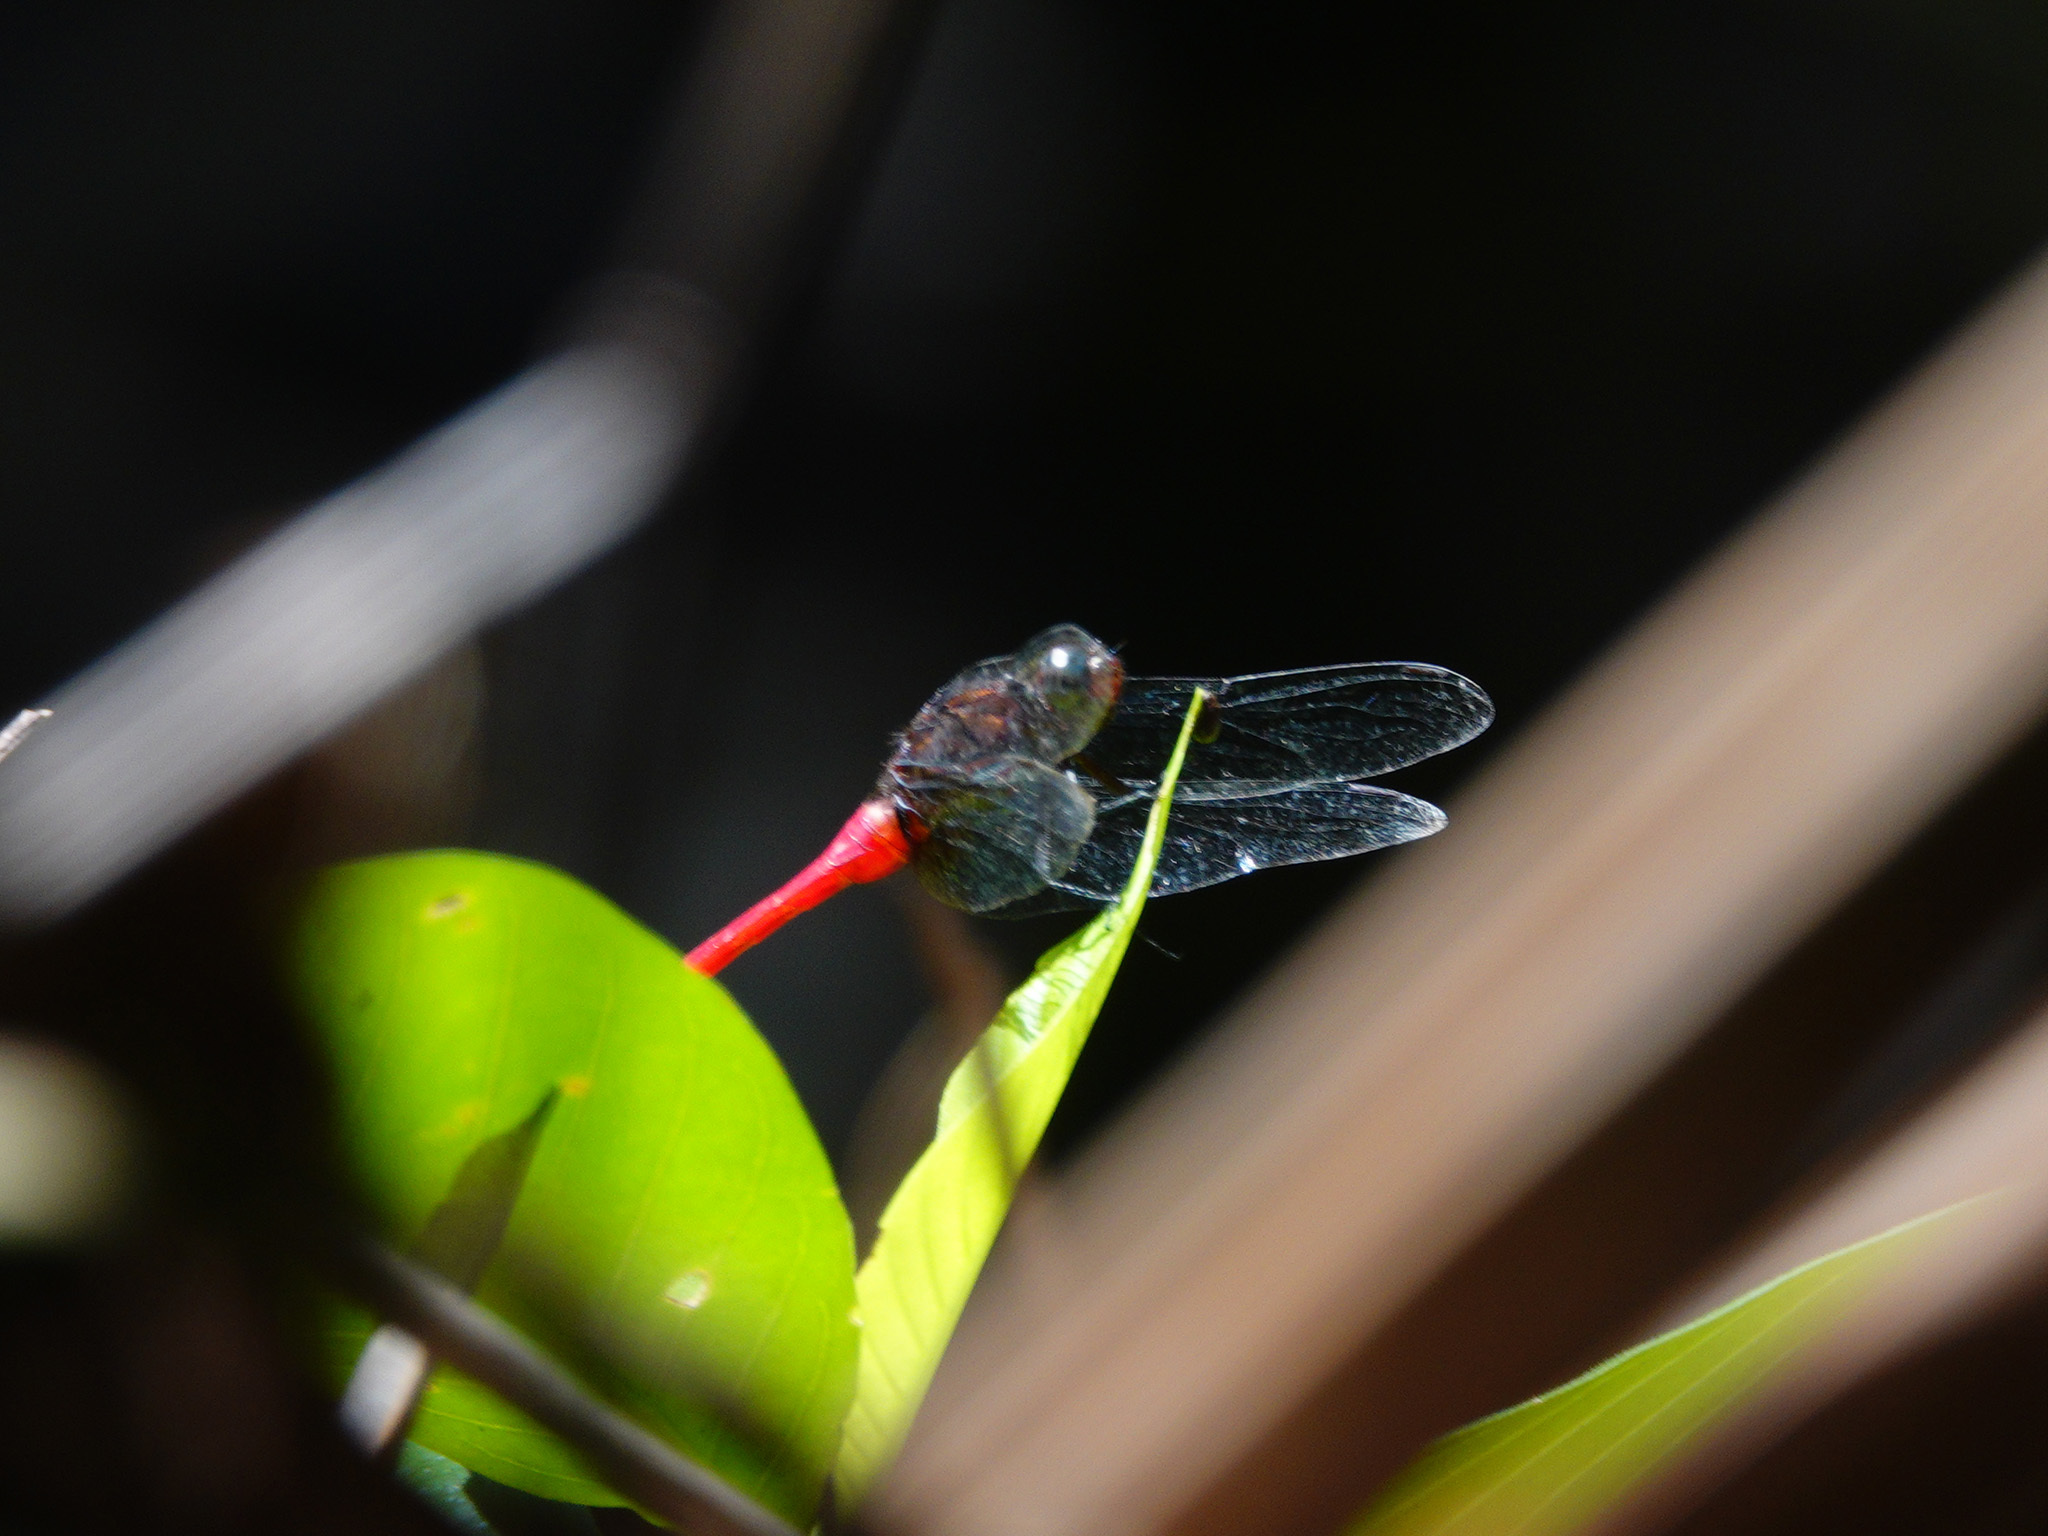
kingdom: Animalia
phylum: Arthropoda
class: Insecta
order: Odonata
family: Libellulidae
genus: Orthetrum
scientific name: Orthetrum chrysis
